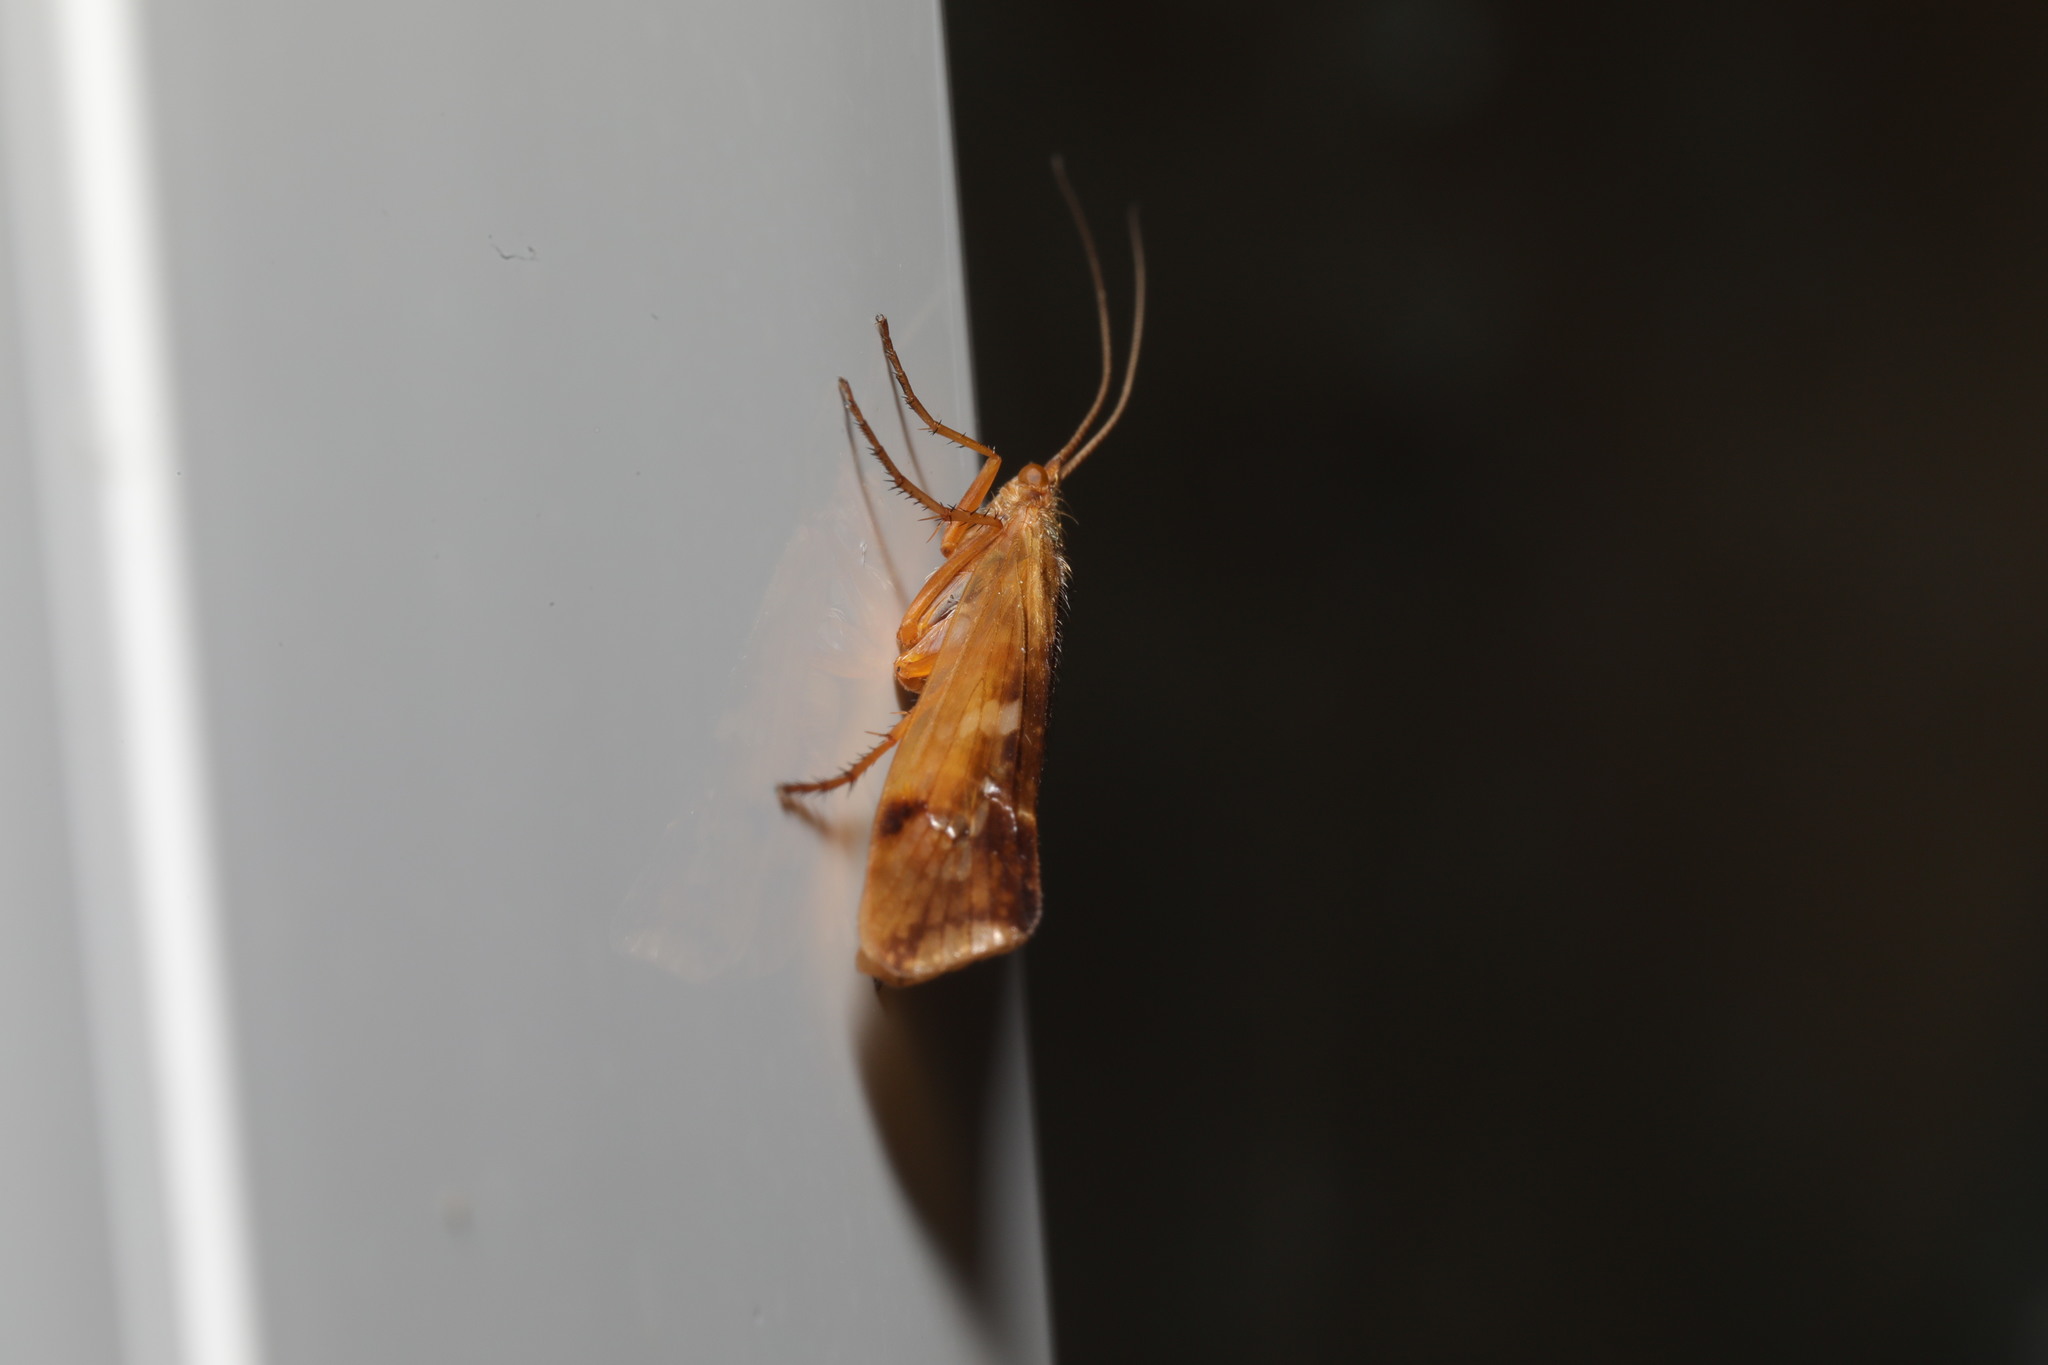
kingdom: Animalia
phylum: Arthropoda
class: Insecta
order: Trichoptera
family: Limnephilidae
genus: Limnephilus
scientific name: Limnephilus lunatus
